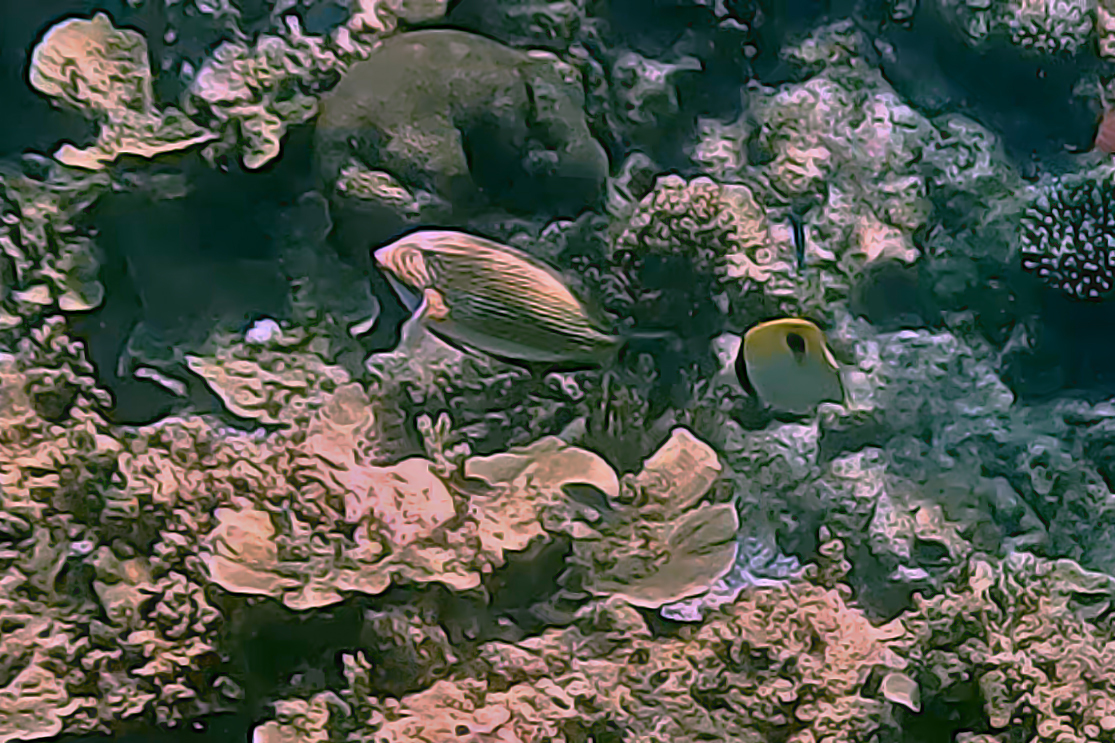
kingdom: Animalia
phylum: Chordata
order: Perciformes
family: Acanthuridae
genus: Acanthurus
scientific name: Acanthurus lineatus
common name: Striped surgeonfish
